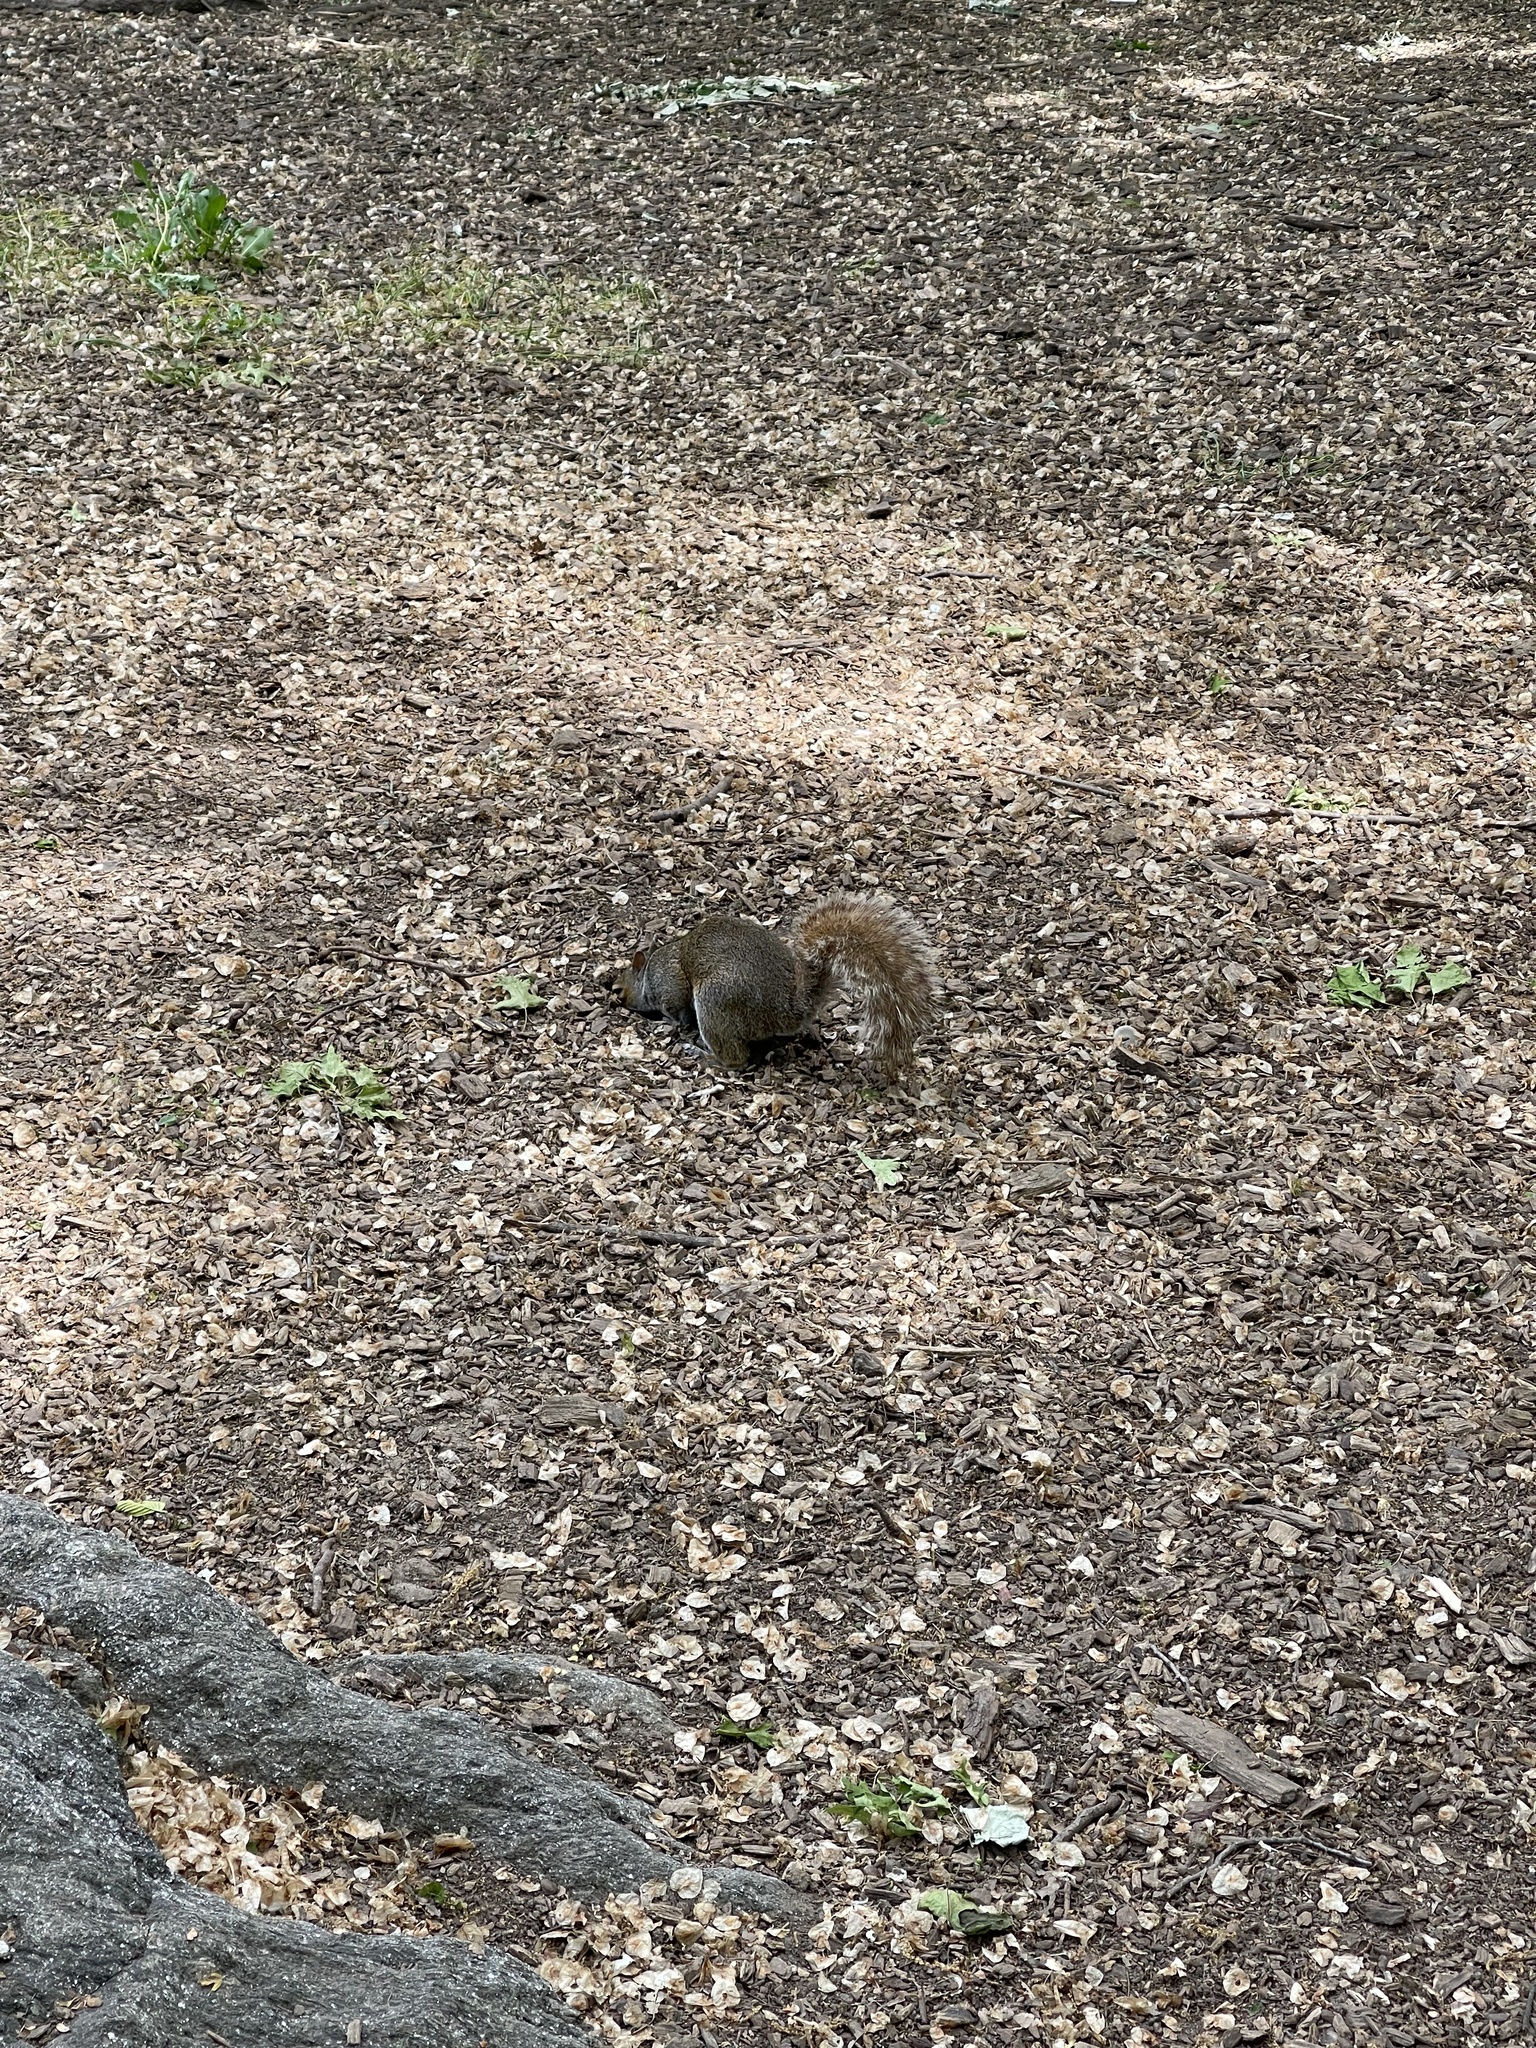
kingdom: Animalia
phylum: Chordata
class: Mammalia
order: Rodentia
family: Sciuridae
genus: Sciurus
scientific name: Sciurus carolinensis
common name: Eastern gray squirrel
